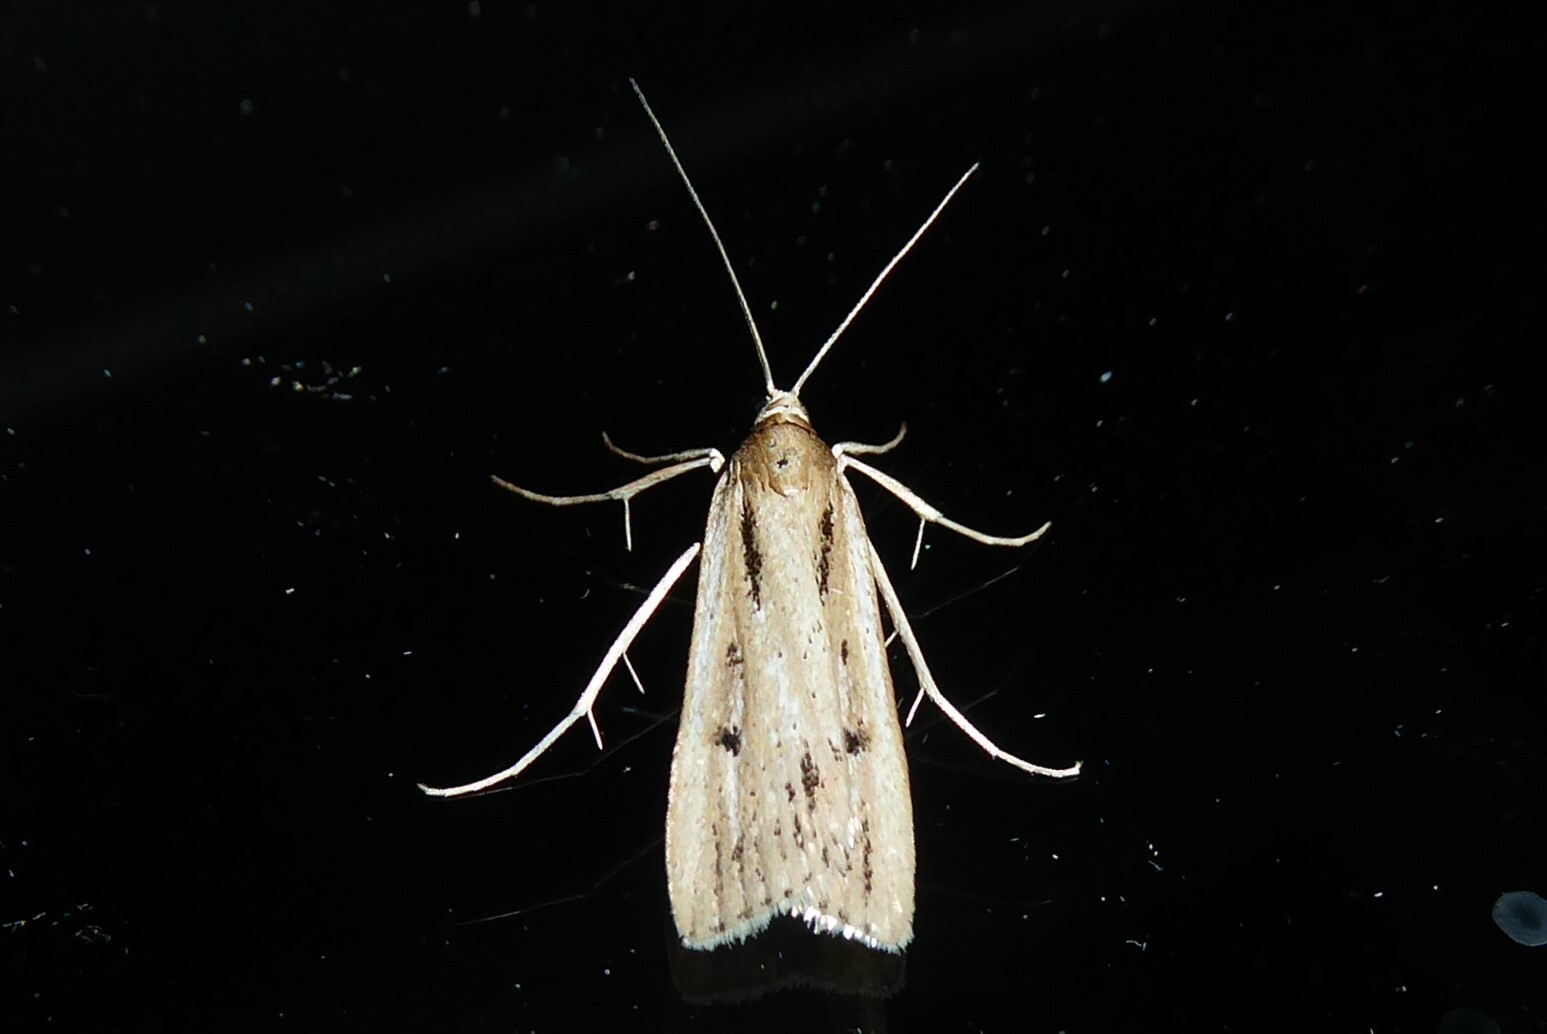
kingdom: Animalia
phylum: Arthropoda
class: Insecta
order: Lepidoptera
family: Crambidae
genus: Eudonia
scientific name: Eudonia sabulosella
